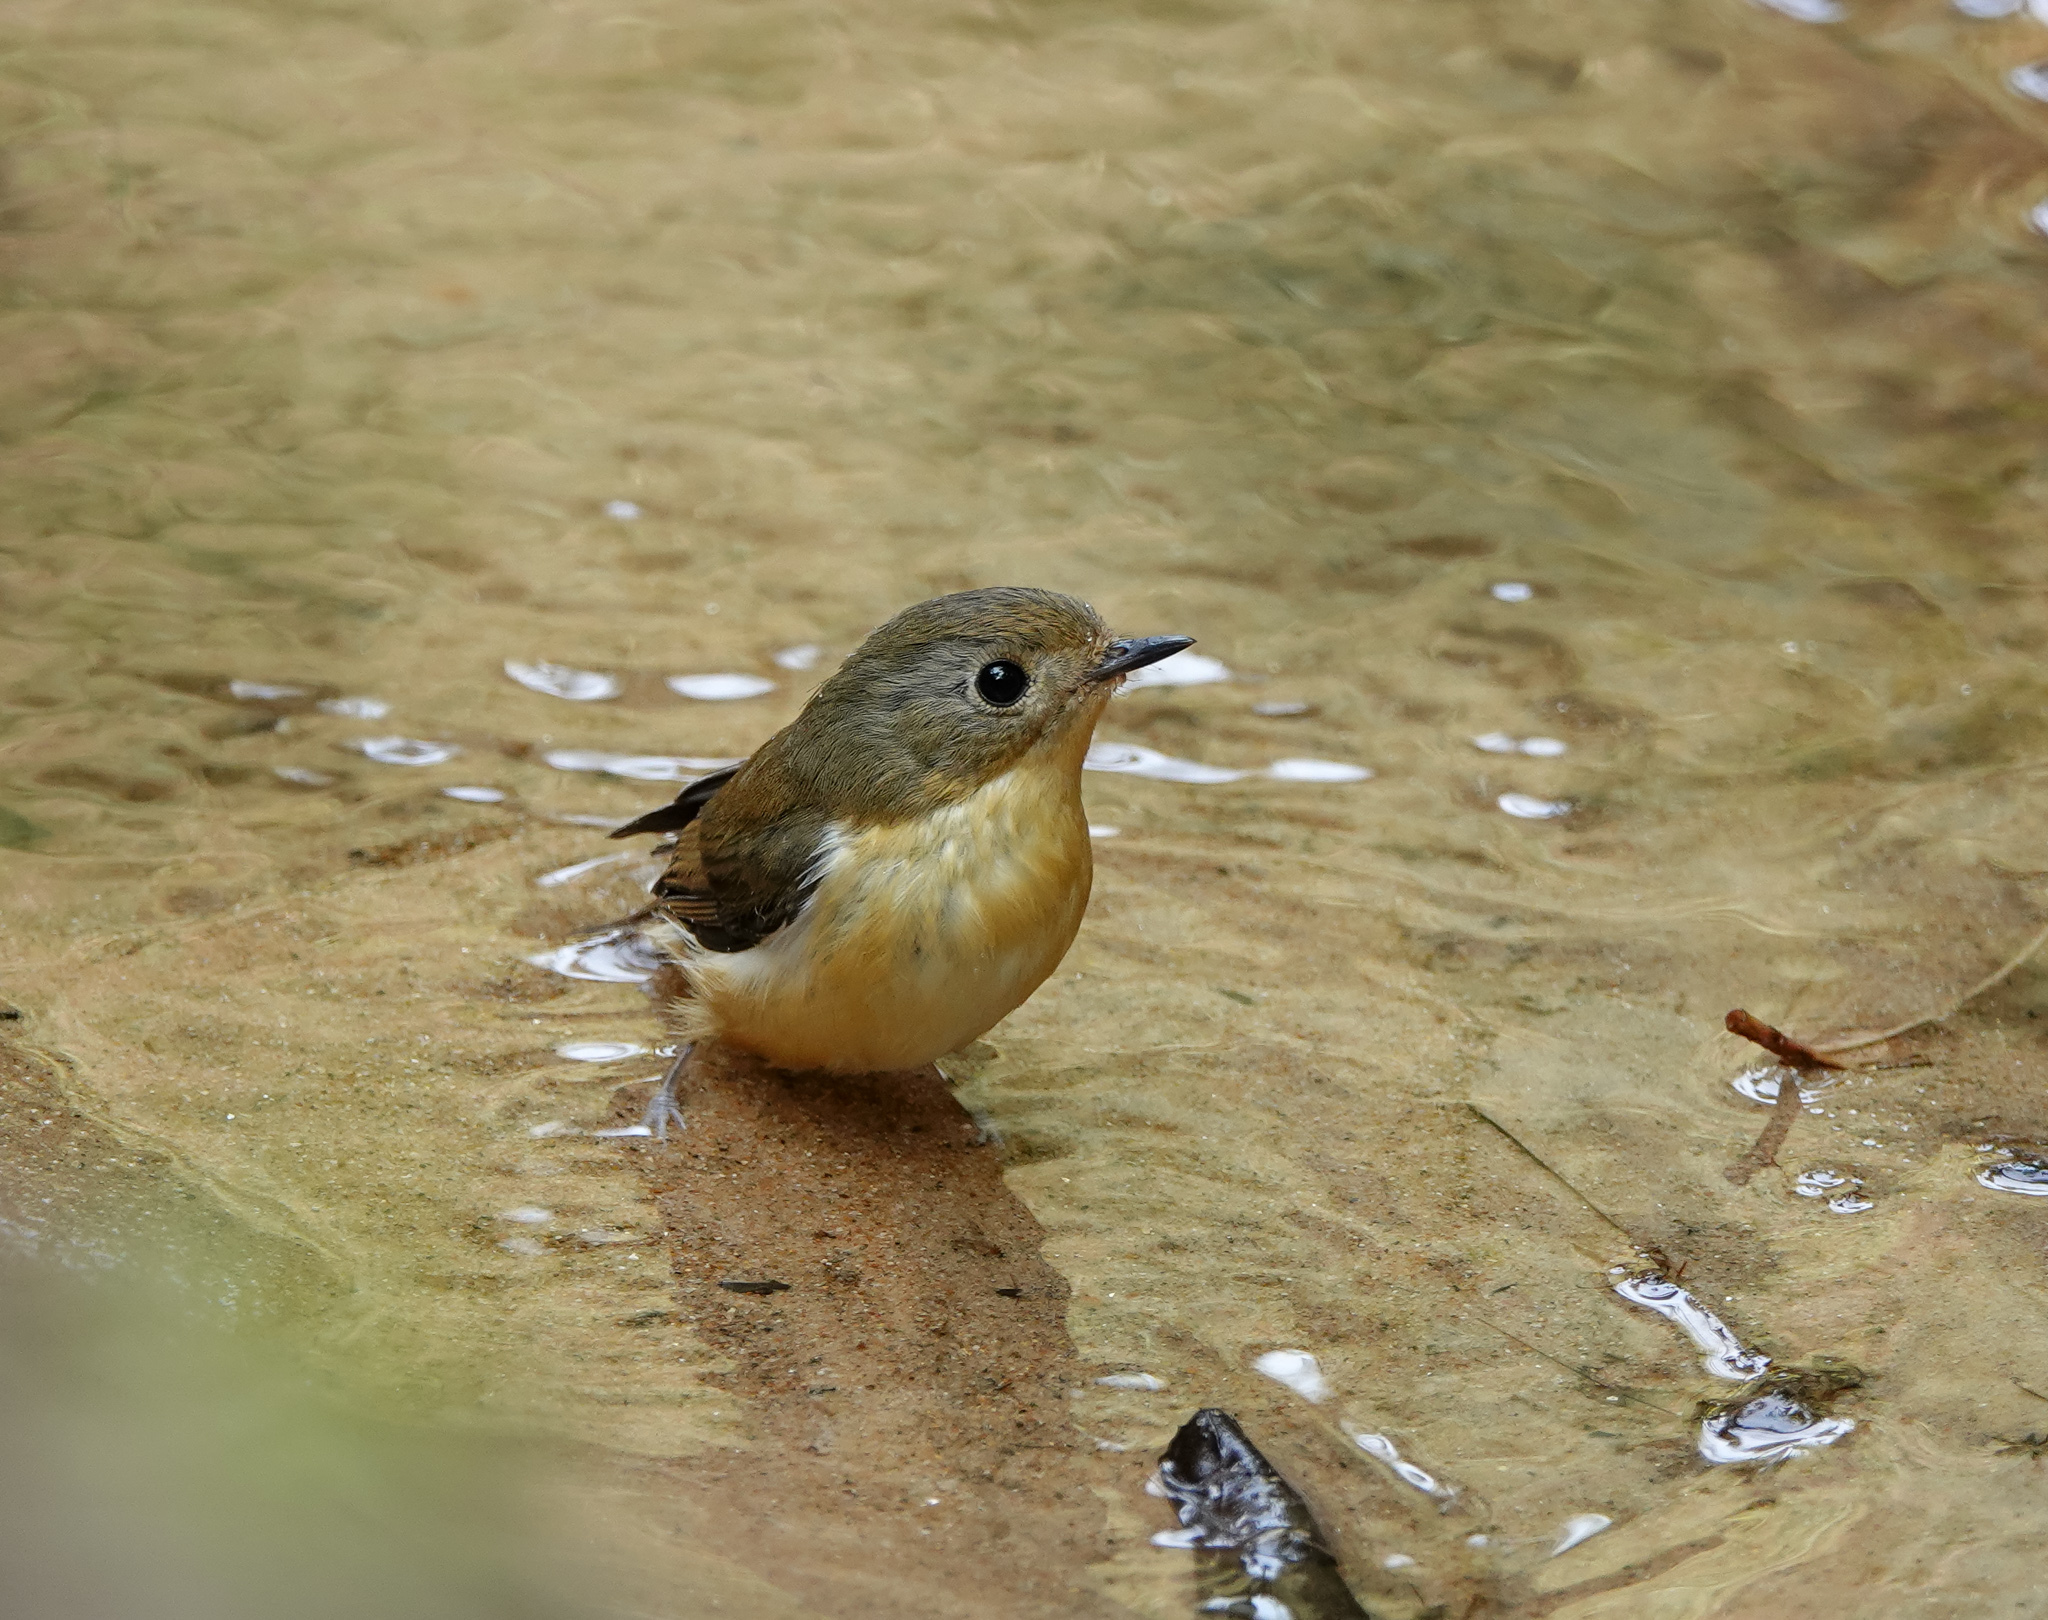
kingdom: Animalia
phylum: Chordata
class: Aves
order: Passeriformes
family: Muscicapidae
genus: Ficedula
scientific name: Ficedula hodgsoni
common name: Pygmy flycatcher
